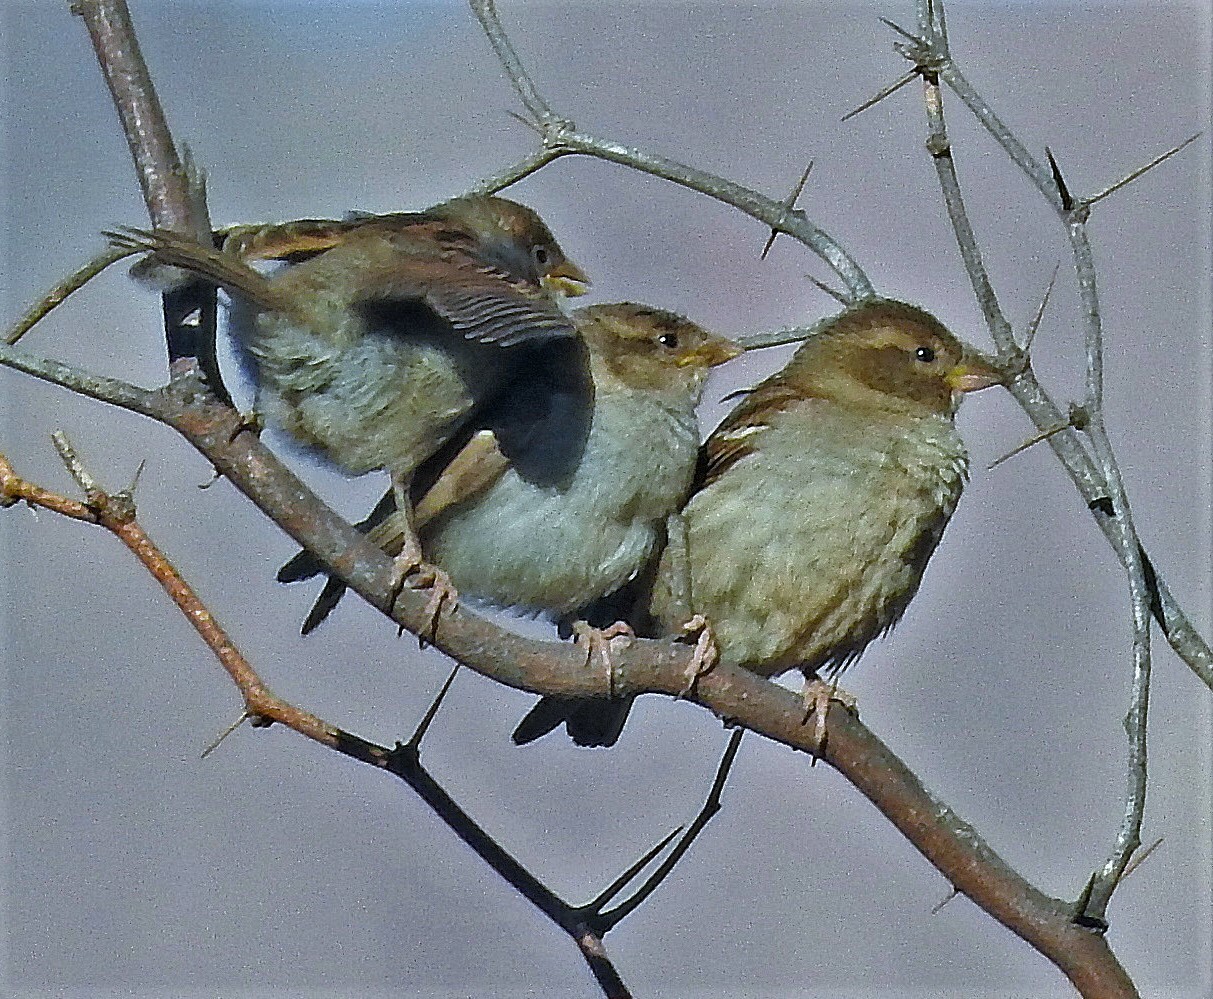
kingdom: Animalia
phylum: Chordata
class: Aves
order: Passeriformes
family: Passeridae
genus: Passer
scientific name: Passer domesticus
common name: House sparrow
